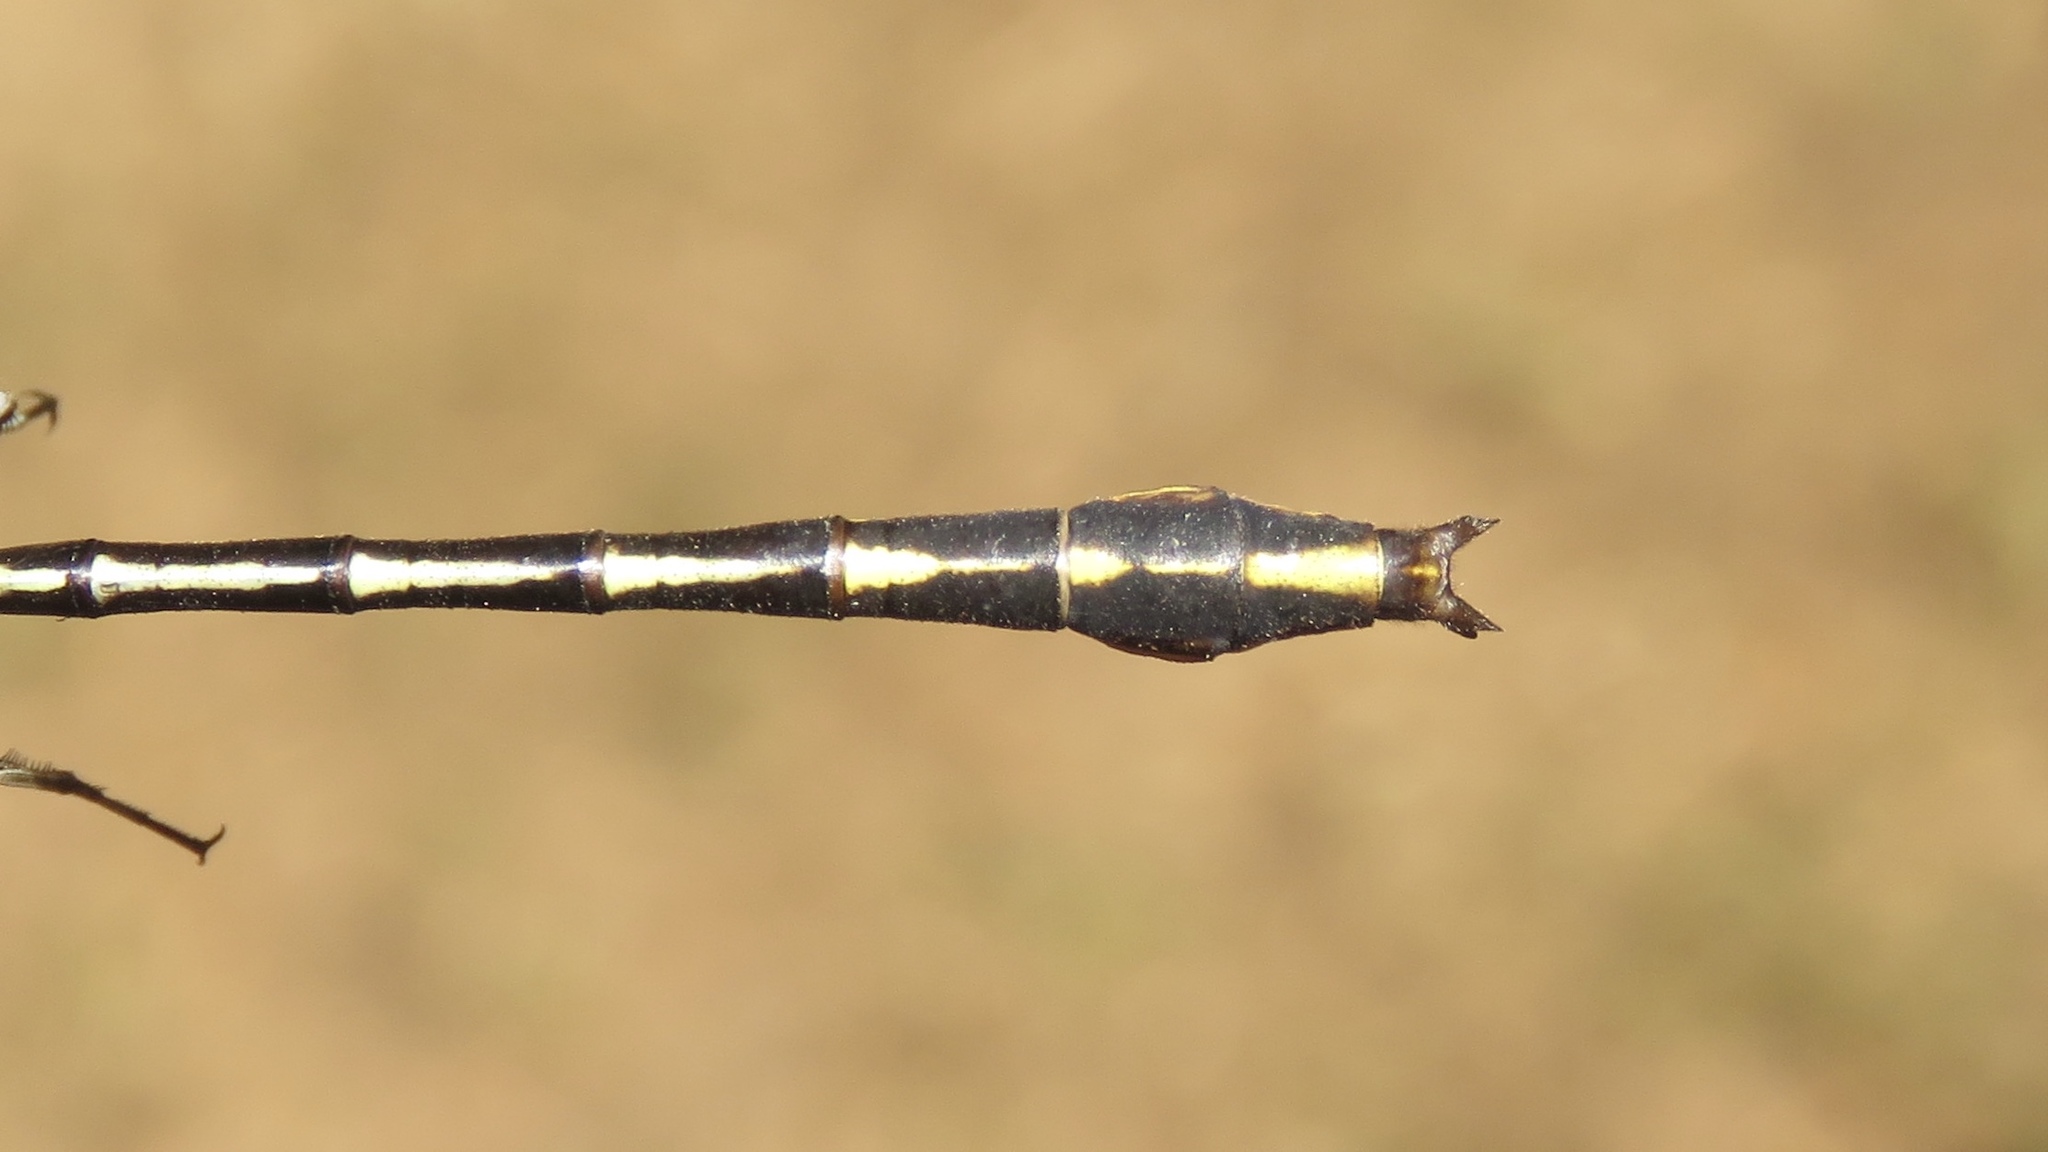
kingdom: Animalia
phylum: Arthropoda
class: Insecta
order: Odonata
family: Gomphidae
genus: Phanogomphus
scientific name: Phanogomphus exilis
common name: Lancet clubtail
